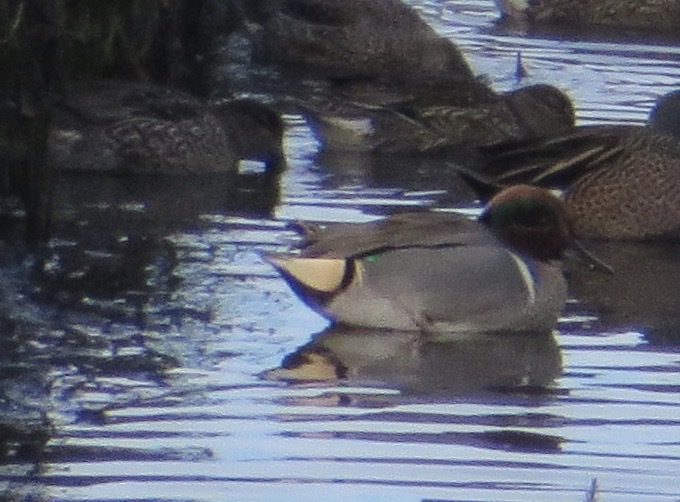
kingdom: Animalia
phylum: Chordata
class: Aves
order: Anseriformes
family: Anatidae
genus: Anas
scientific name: Anas crecca
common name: Eurasian teal
